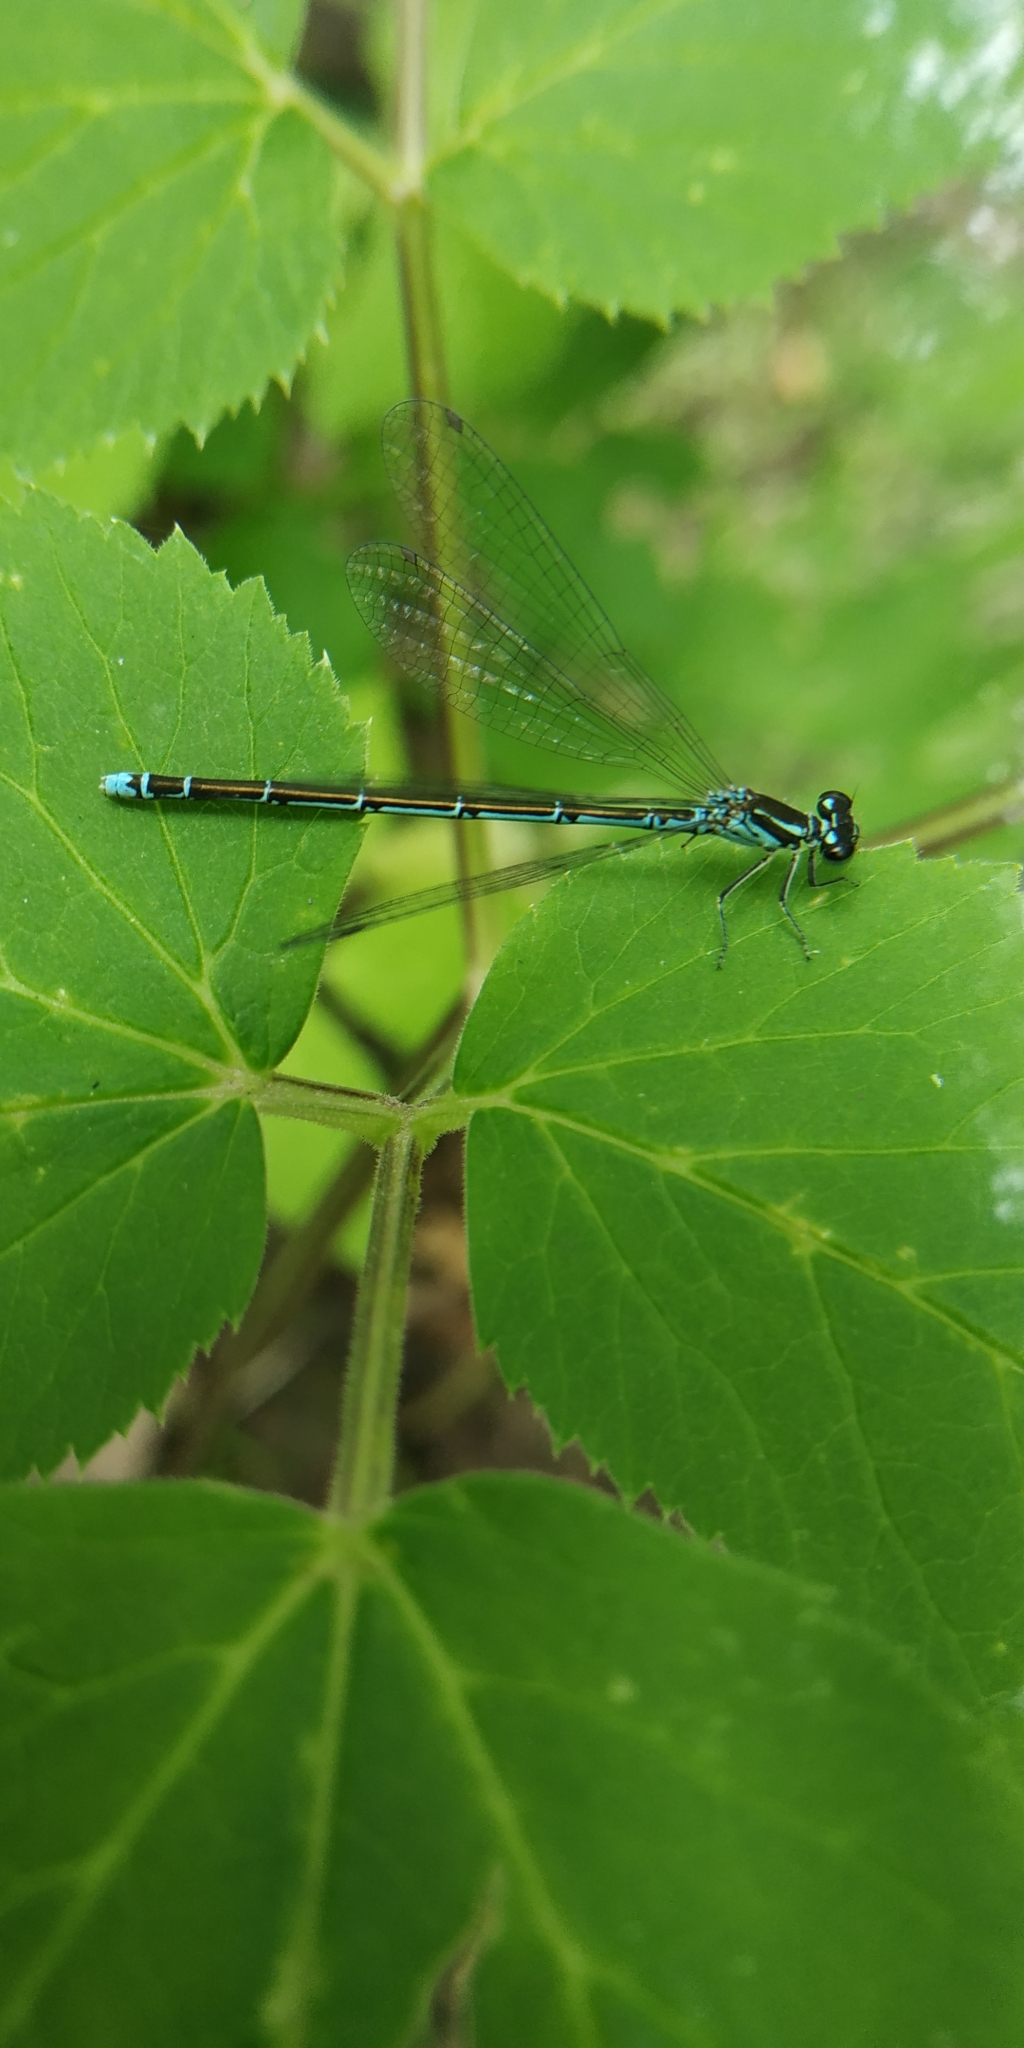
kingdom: Animalia
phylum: Arthropoda
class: Insecta
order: Odonata
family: Coenagrionidae
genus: Coenagrion
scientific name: Coenagrion johanssoni
